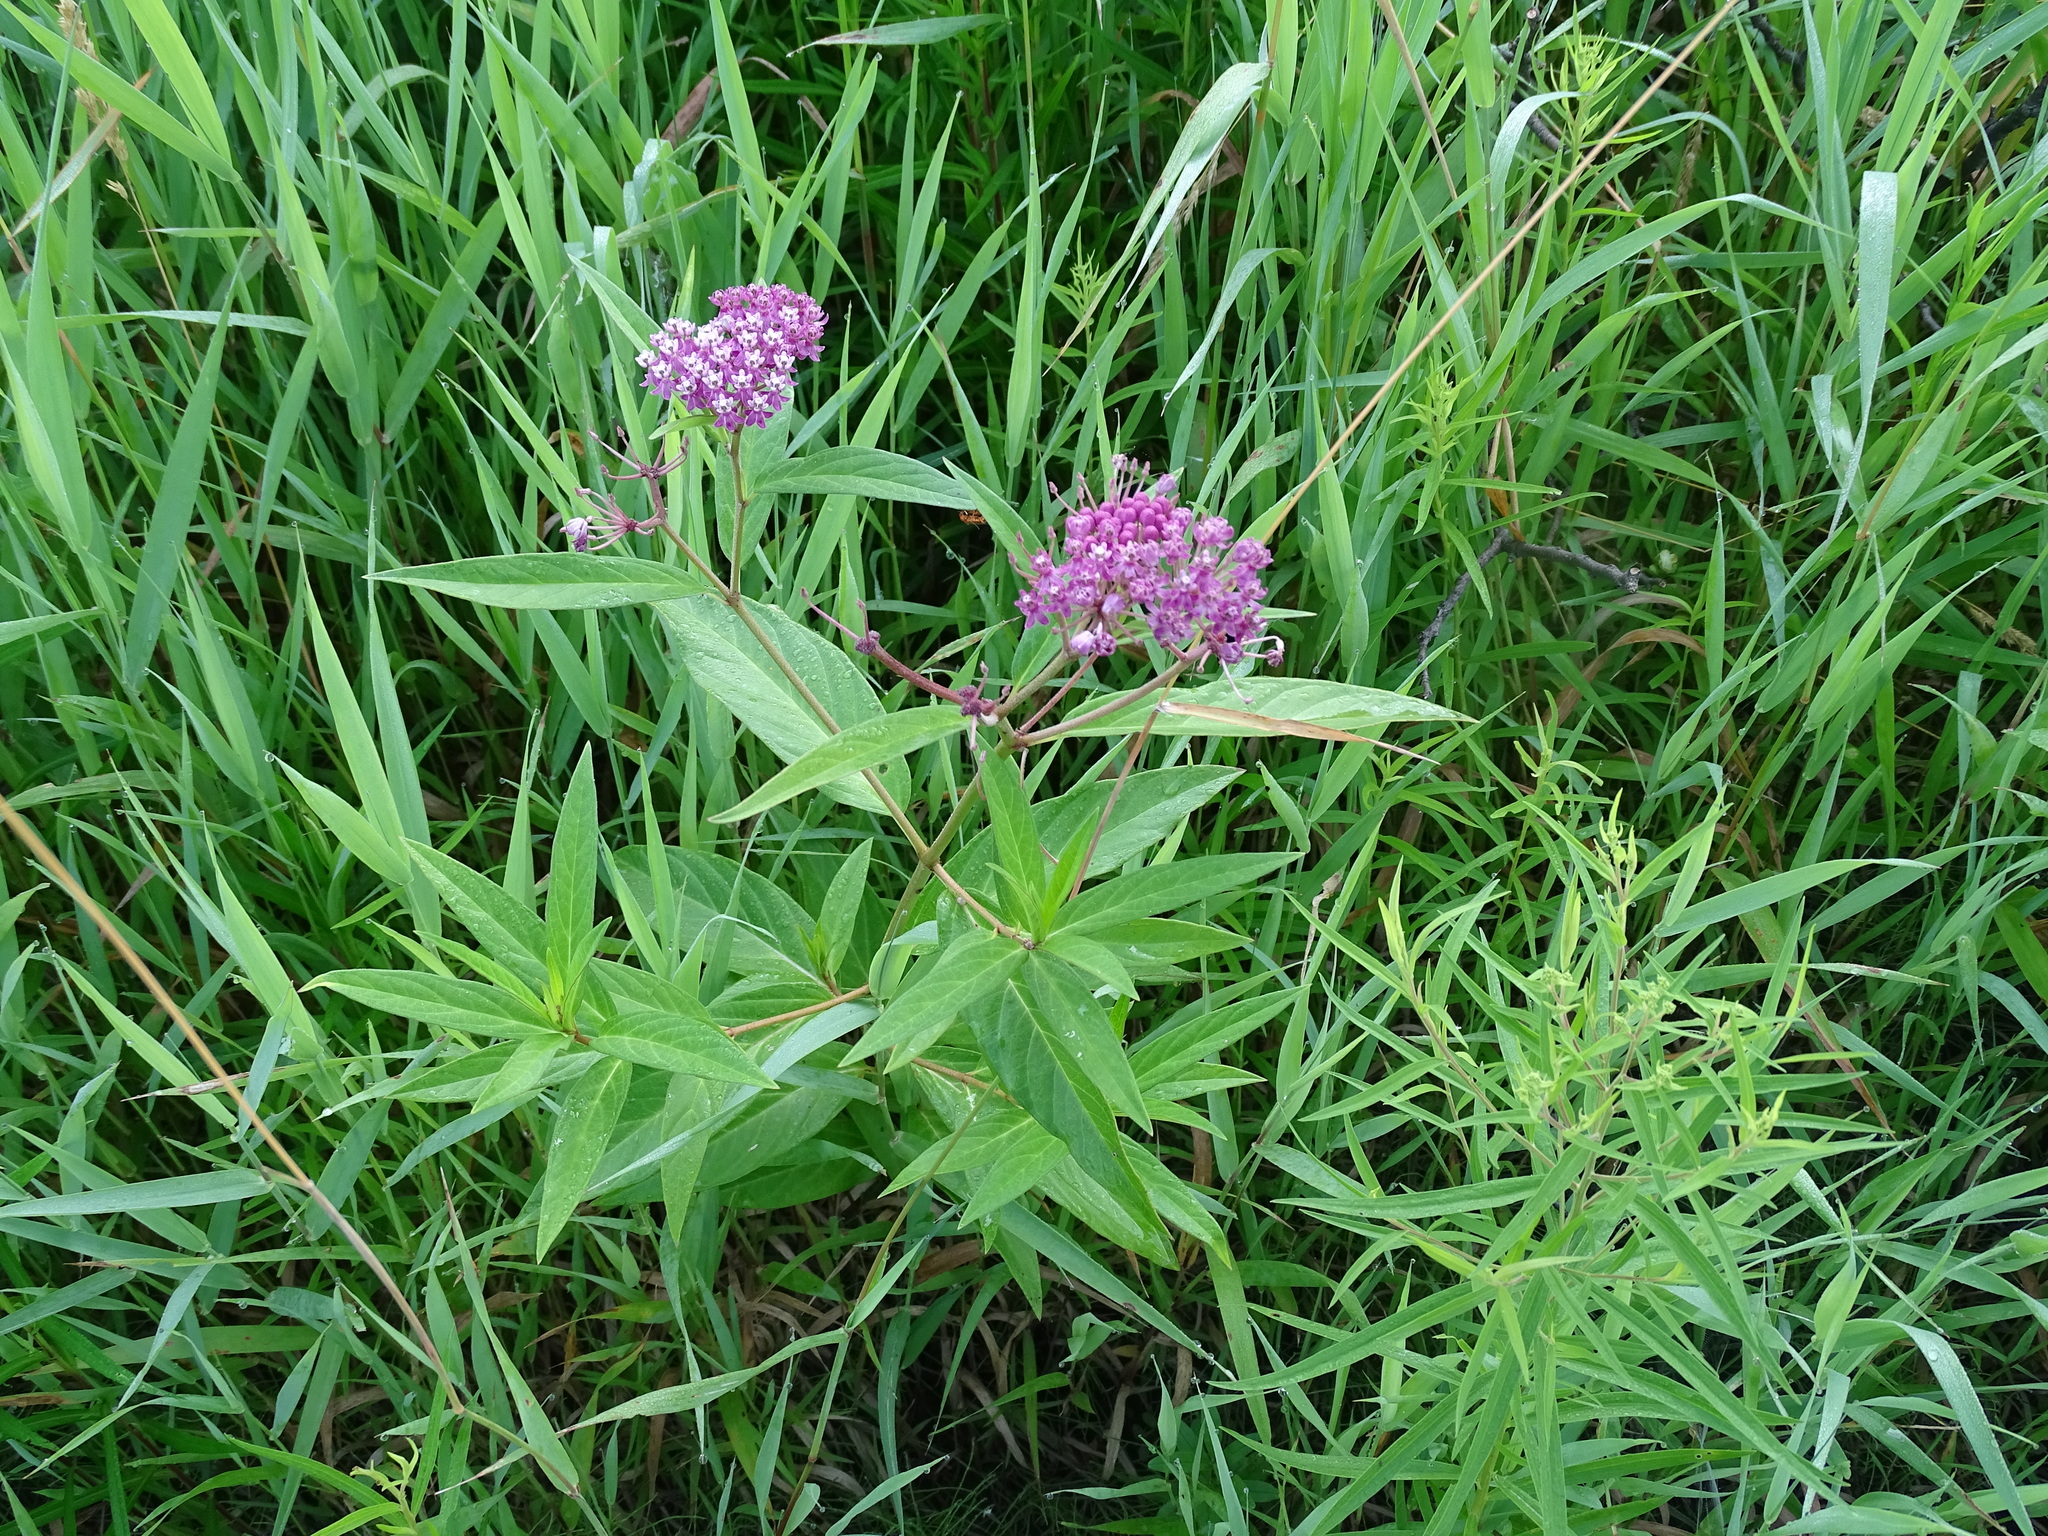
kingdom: Plantae
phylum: Tracheophyta
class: Magnoliopsida
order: Gentianales
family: Apocynaceae
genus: Asclepias
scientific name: Asclepias incarnata
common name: Swamp milkweed
